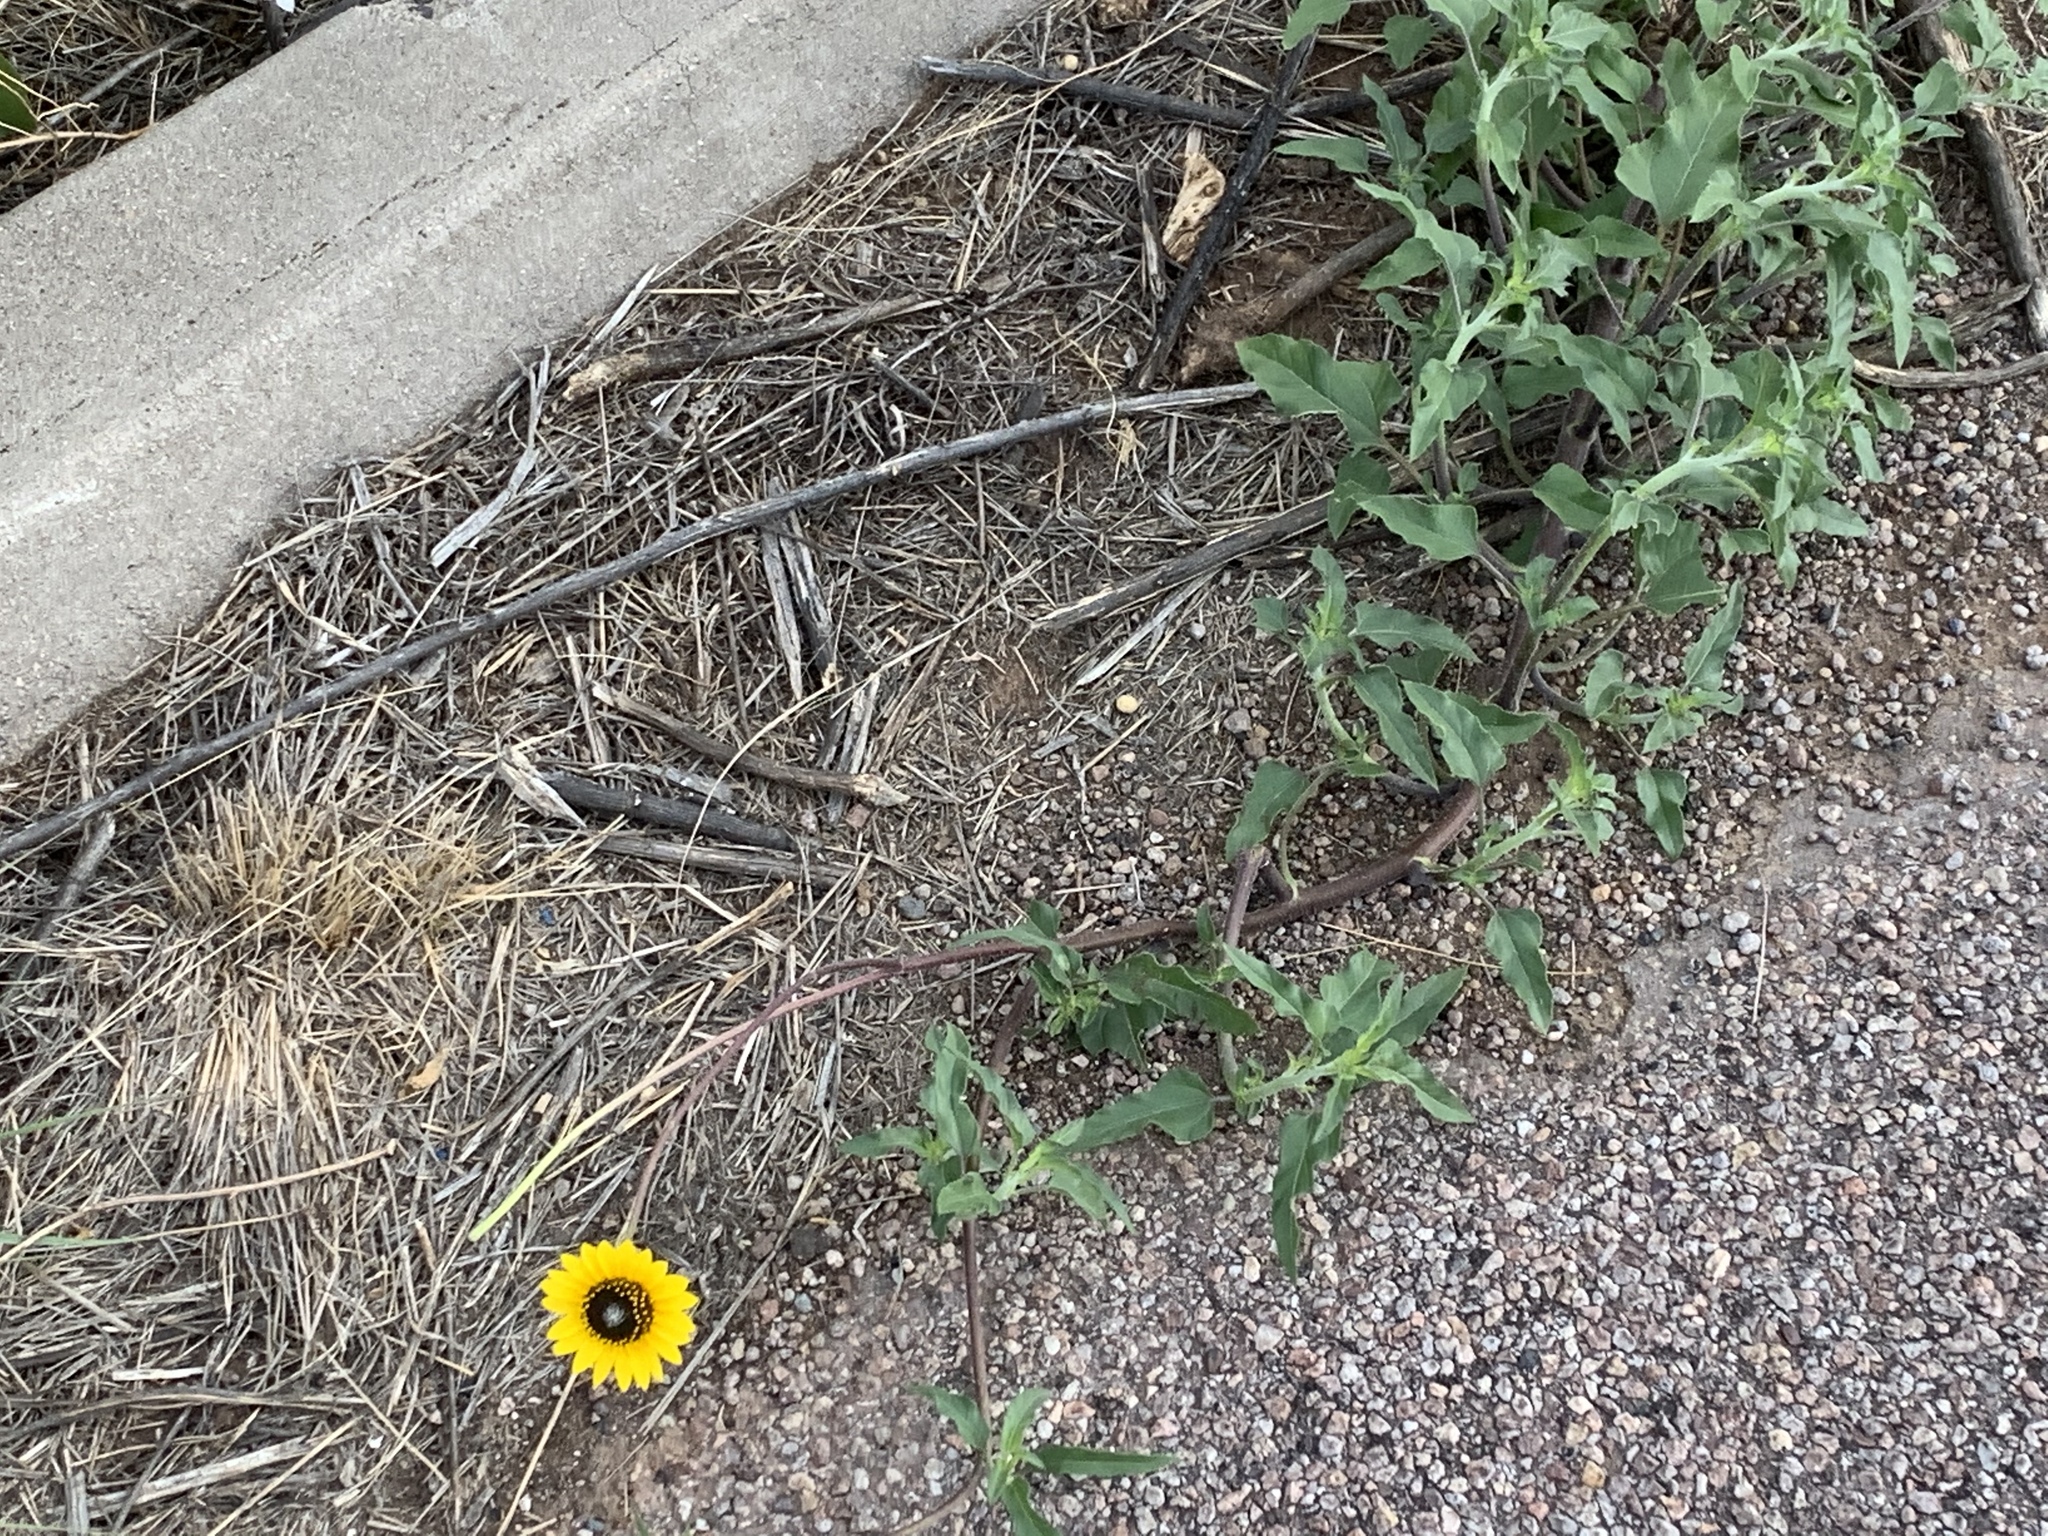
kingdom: Plantae
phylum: Tracheophyta
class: Magnoliopsida
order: Asterales
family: Asteraceae
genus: Helianthus
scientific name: Helianthus petiolaris
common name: Lesser sunflower
